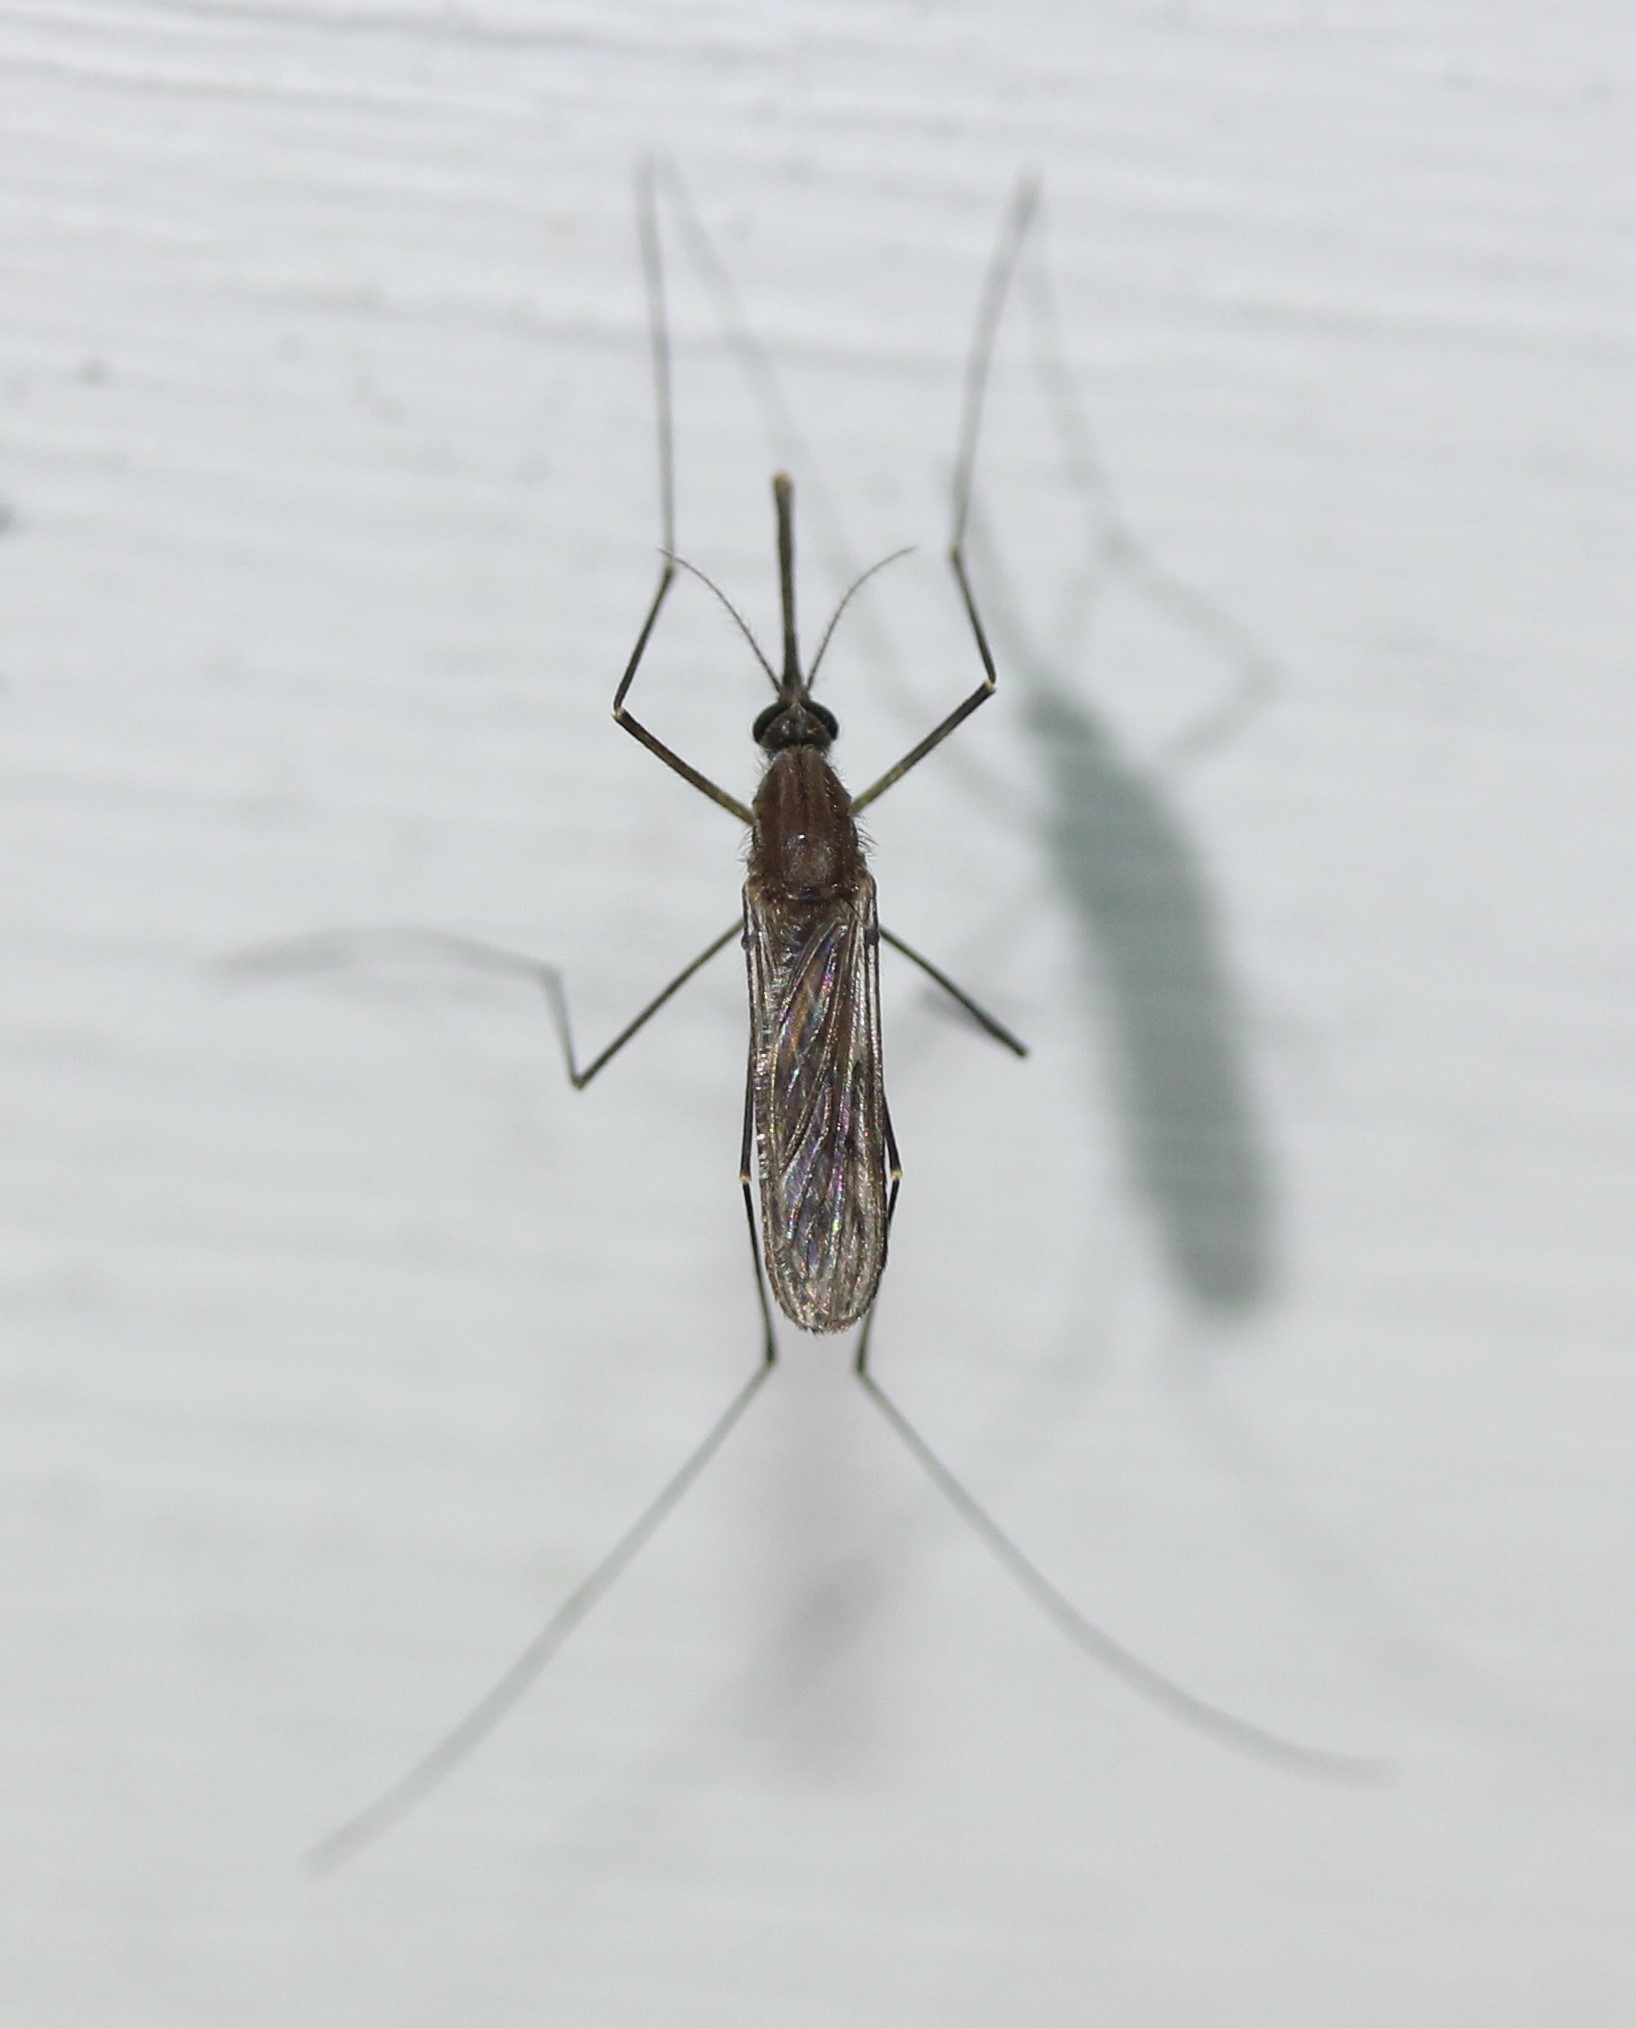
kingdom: Animalia
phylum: Arthropoda
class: Insecta
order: Diptera
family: Culicidae
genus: Anopheles
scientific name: Anopheles quadrimaculatus
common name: Common malaria mosquito
